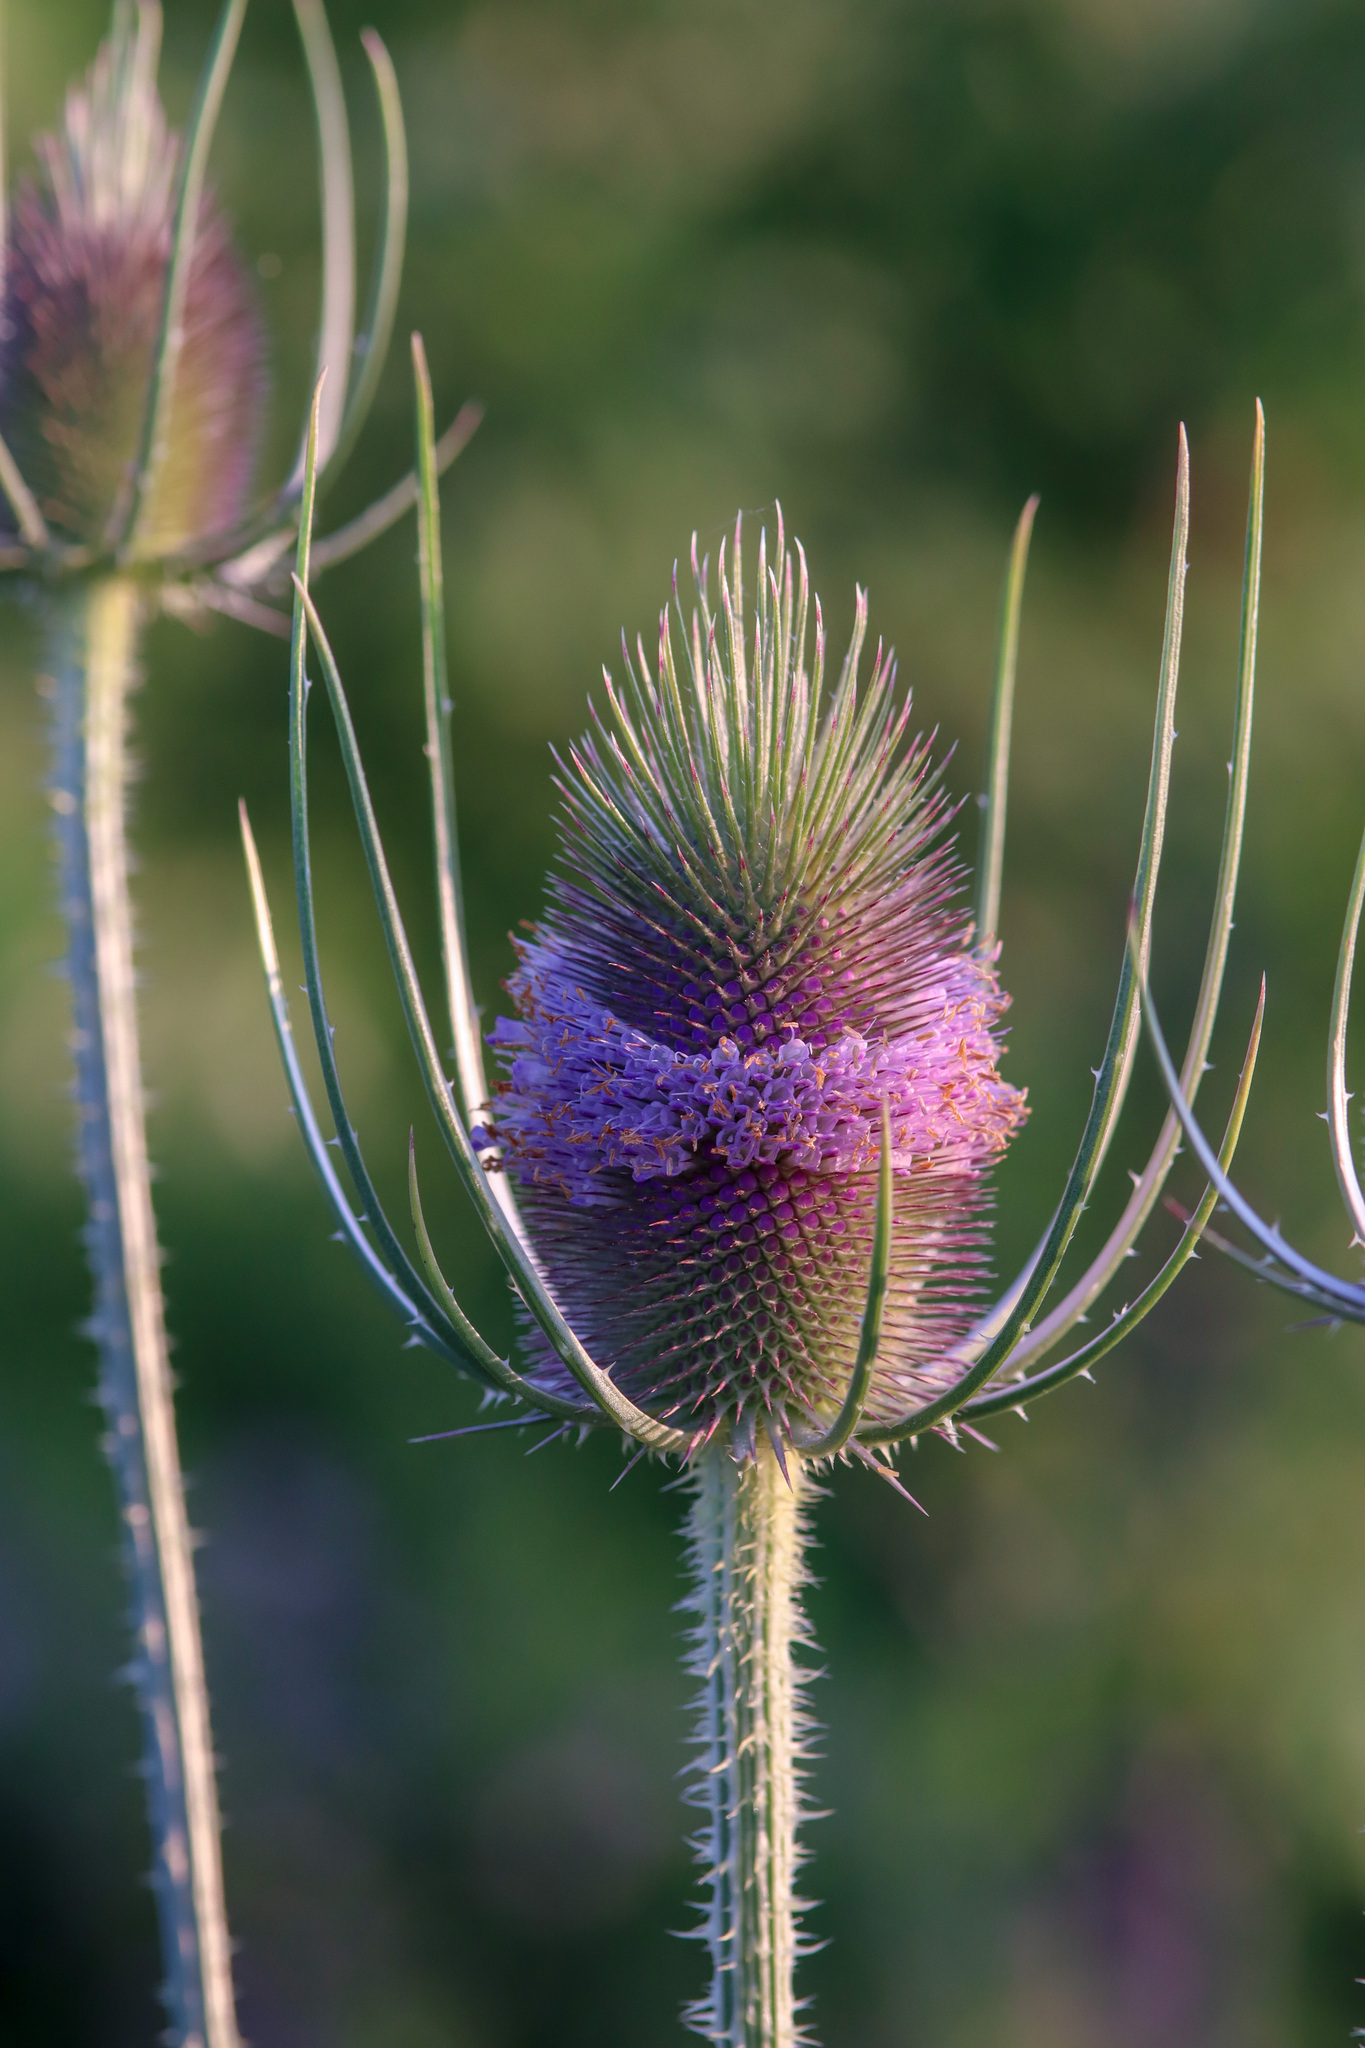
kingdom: Plantae
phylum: Tracheophyta
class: Magnoliopsida
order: Dipsacales
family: Caprifoliaceae
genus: Dipsacus
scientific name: Dipsacus fullonum
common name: Teasel
